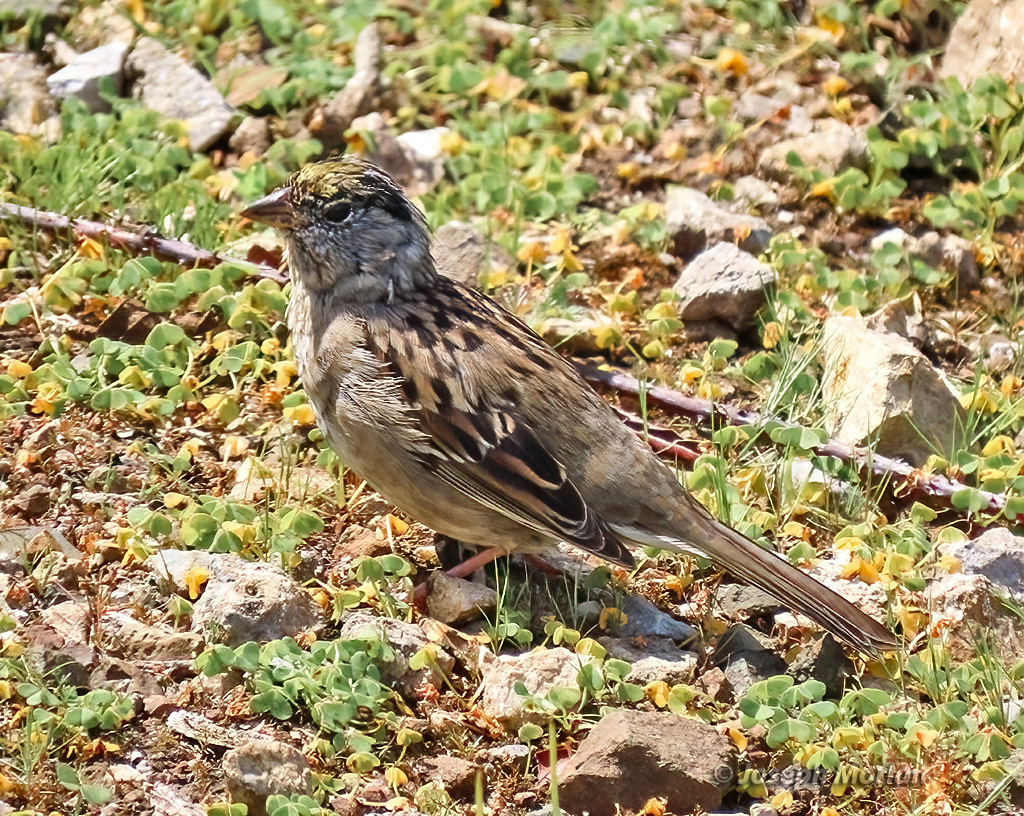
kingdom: Animalia
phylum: Chordata
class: Aves
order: Passeriformes
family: Passerellidae
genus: Zonotrichia
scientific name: Zonotrichia atricapilla
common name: Golden-crowned sparrow
